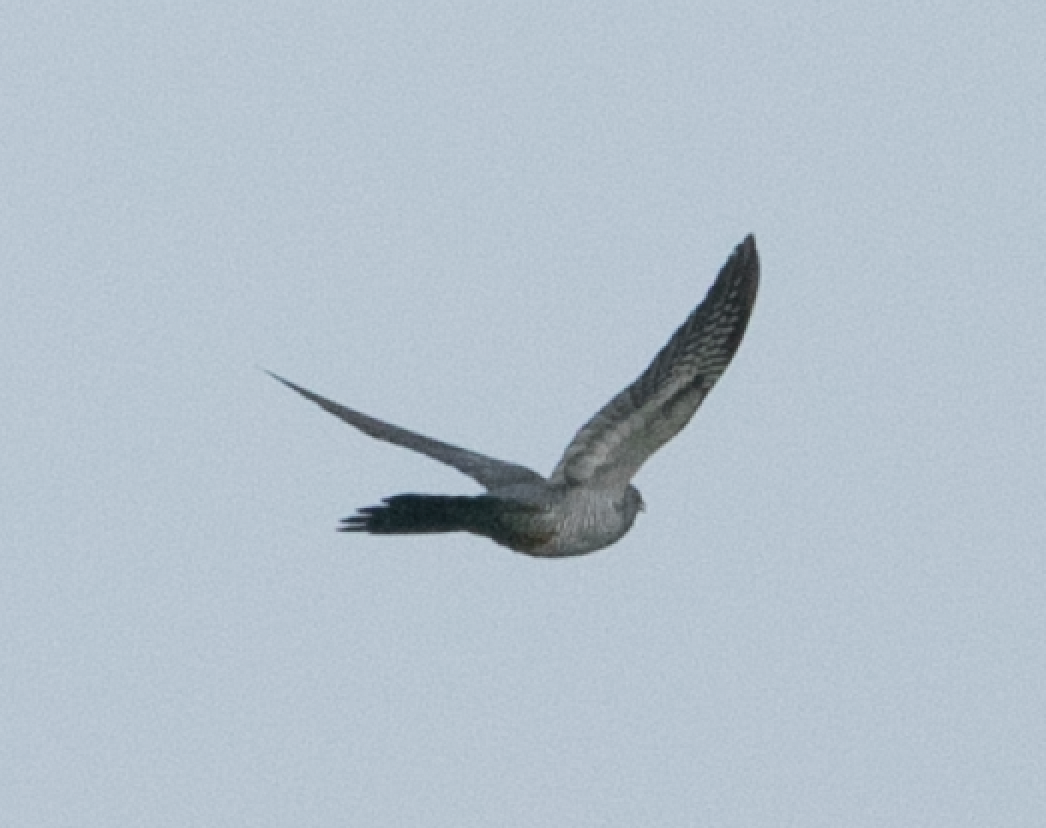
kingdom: Animalia
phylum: Chordata
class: Aves
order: Cuculiformes
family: Cuculidae
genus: Cuculus
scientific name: Cuculus canorus
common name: Common cuckoo
